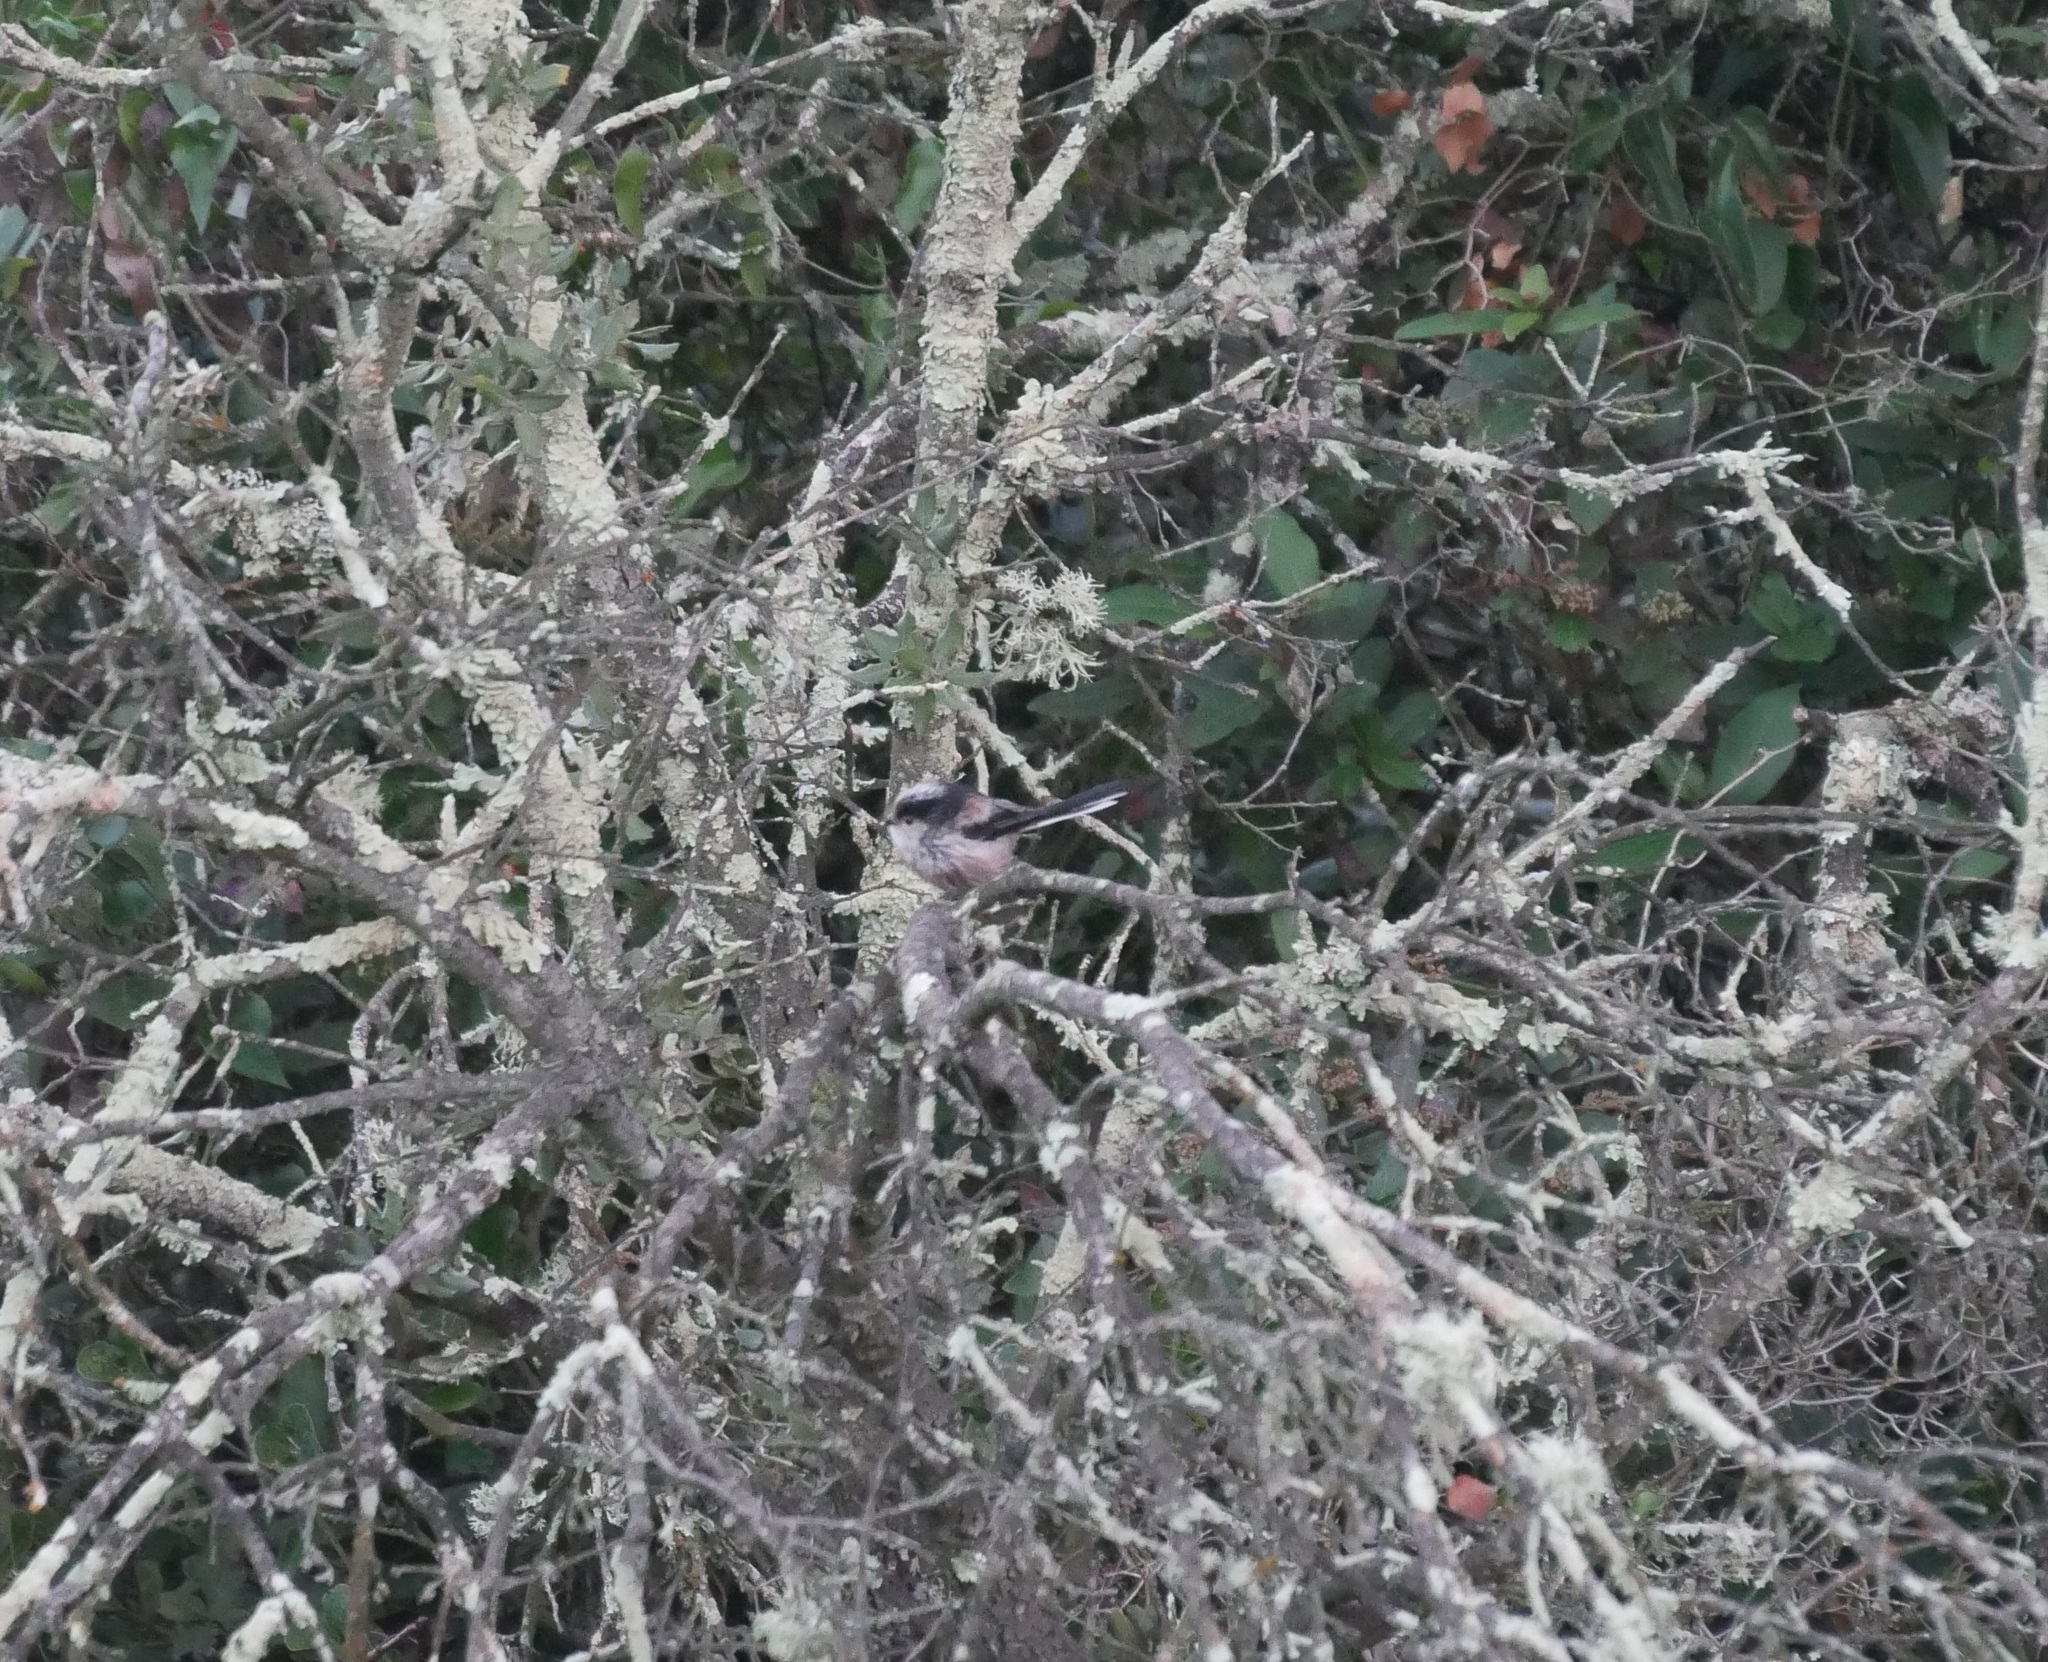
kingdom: Animalia
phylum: Chordata
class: Aves
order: Passeriformes
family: Aegithalidae
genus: Aegithalos
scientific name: Aegithalos caudatus
